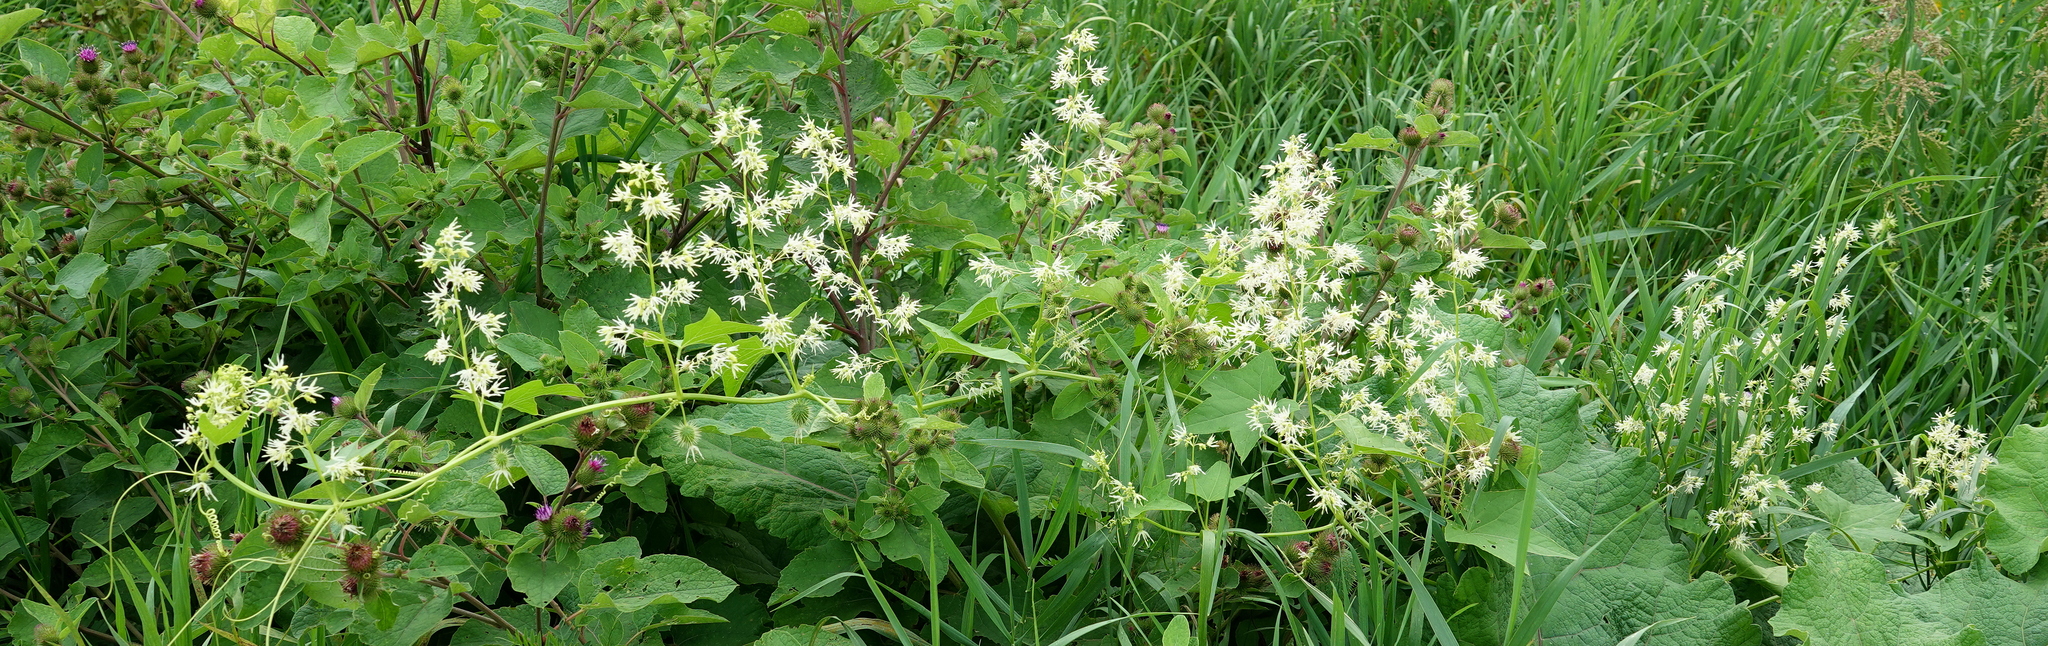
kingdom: Plantae
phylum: Tracheophyta
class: Magnoliopsida
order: Cucurbitales
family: Cucurbitaceae
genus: Echinocystis
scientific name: Echinocystis lobata
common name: Wild cucumber
